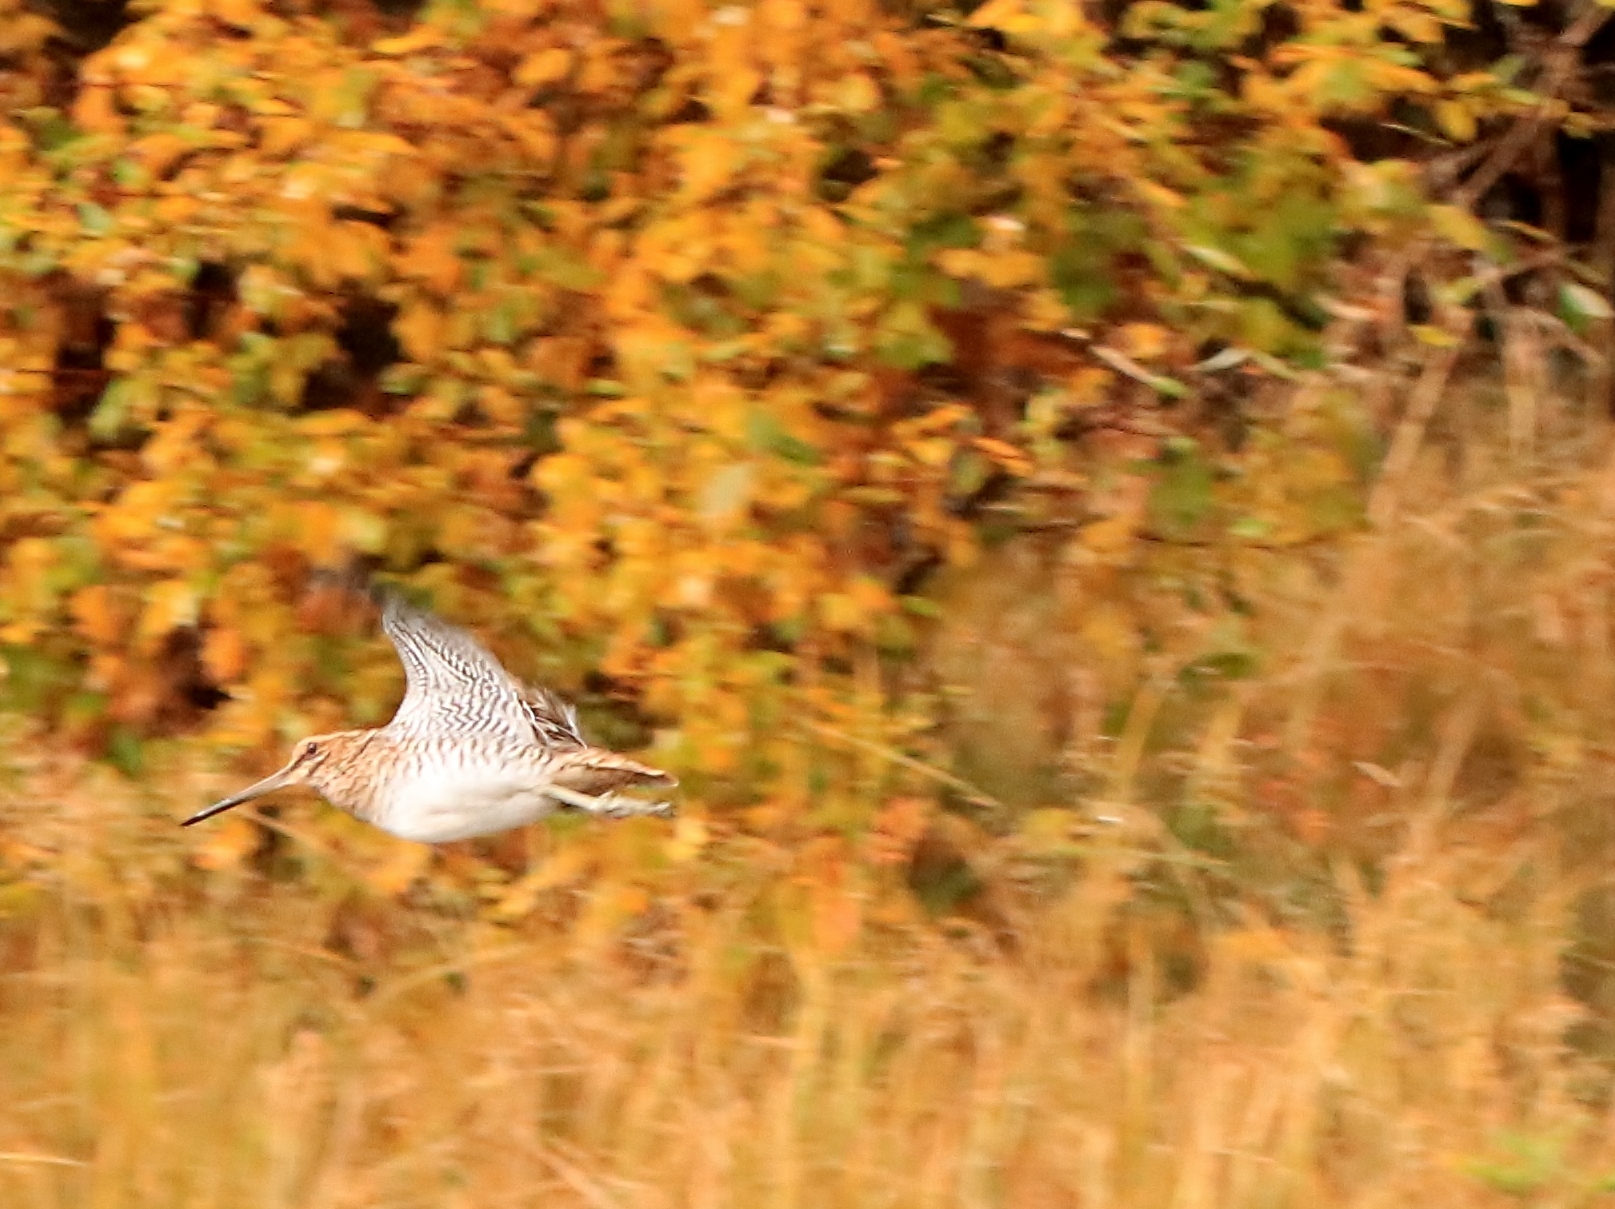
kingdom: Animalia
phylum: Chordata
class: Aves
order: Charadriiformes
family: Scolopacidae
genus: Gallinago
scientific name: Gallinago delicata
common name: Wilson's snipe
